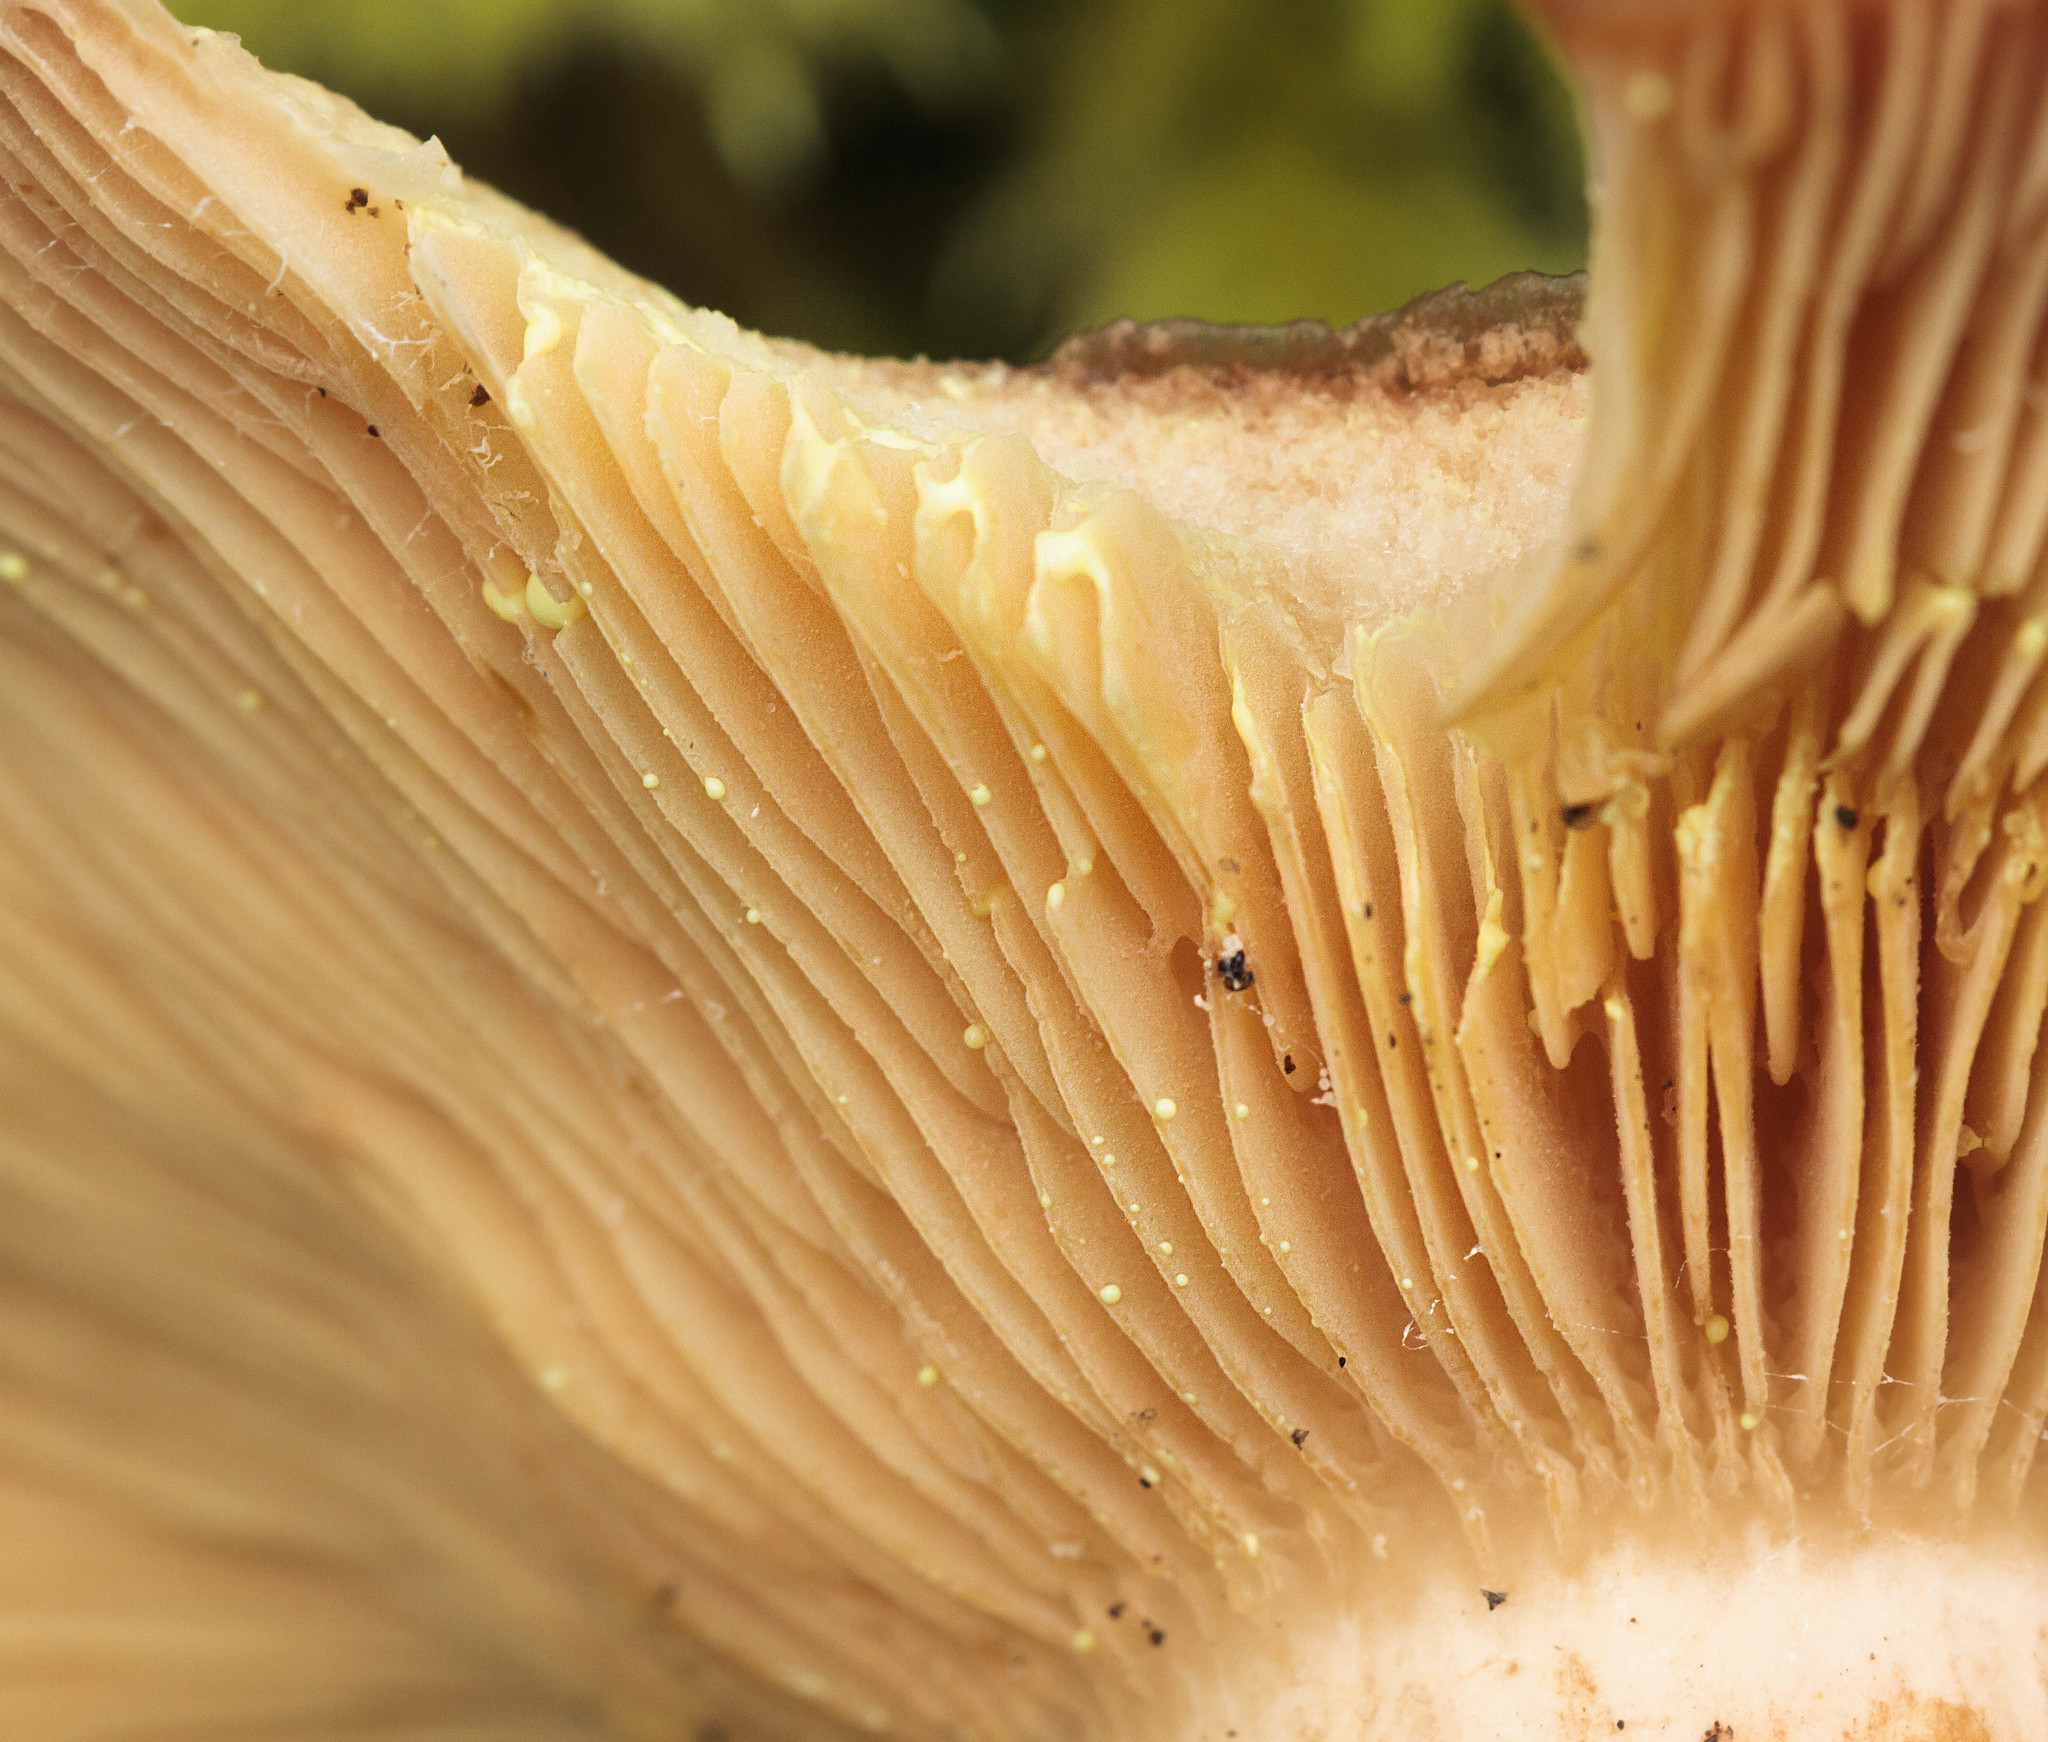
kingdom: Fungi
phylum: Basidiomycota
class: Agaricomycetes
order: Russulales
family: Russulaceae
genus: Lactarius
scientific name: Lactarius xanthogalactus
